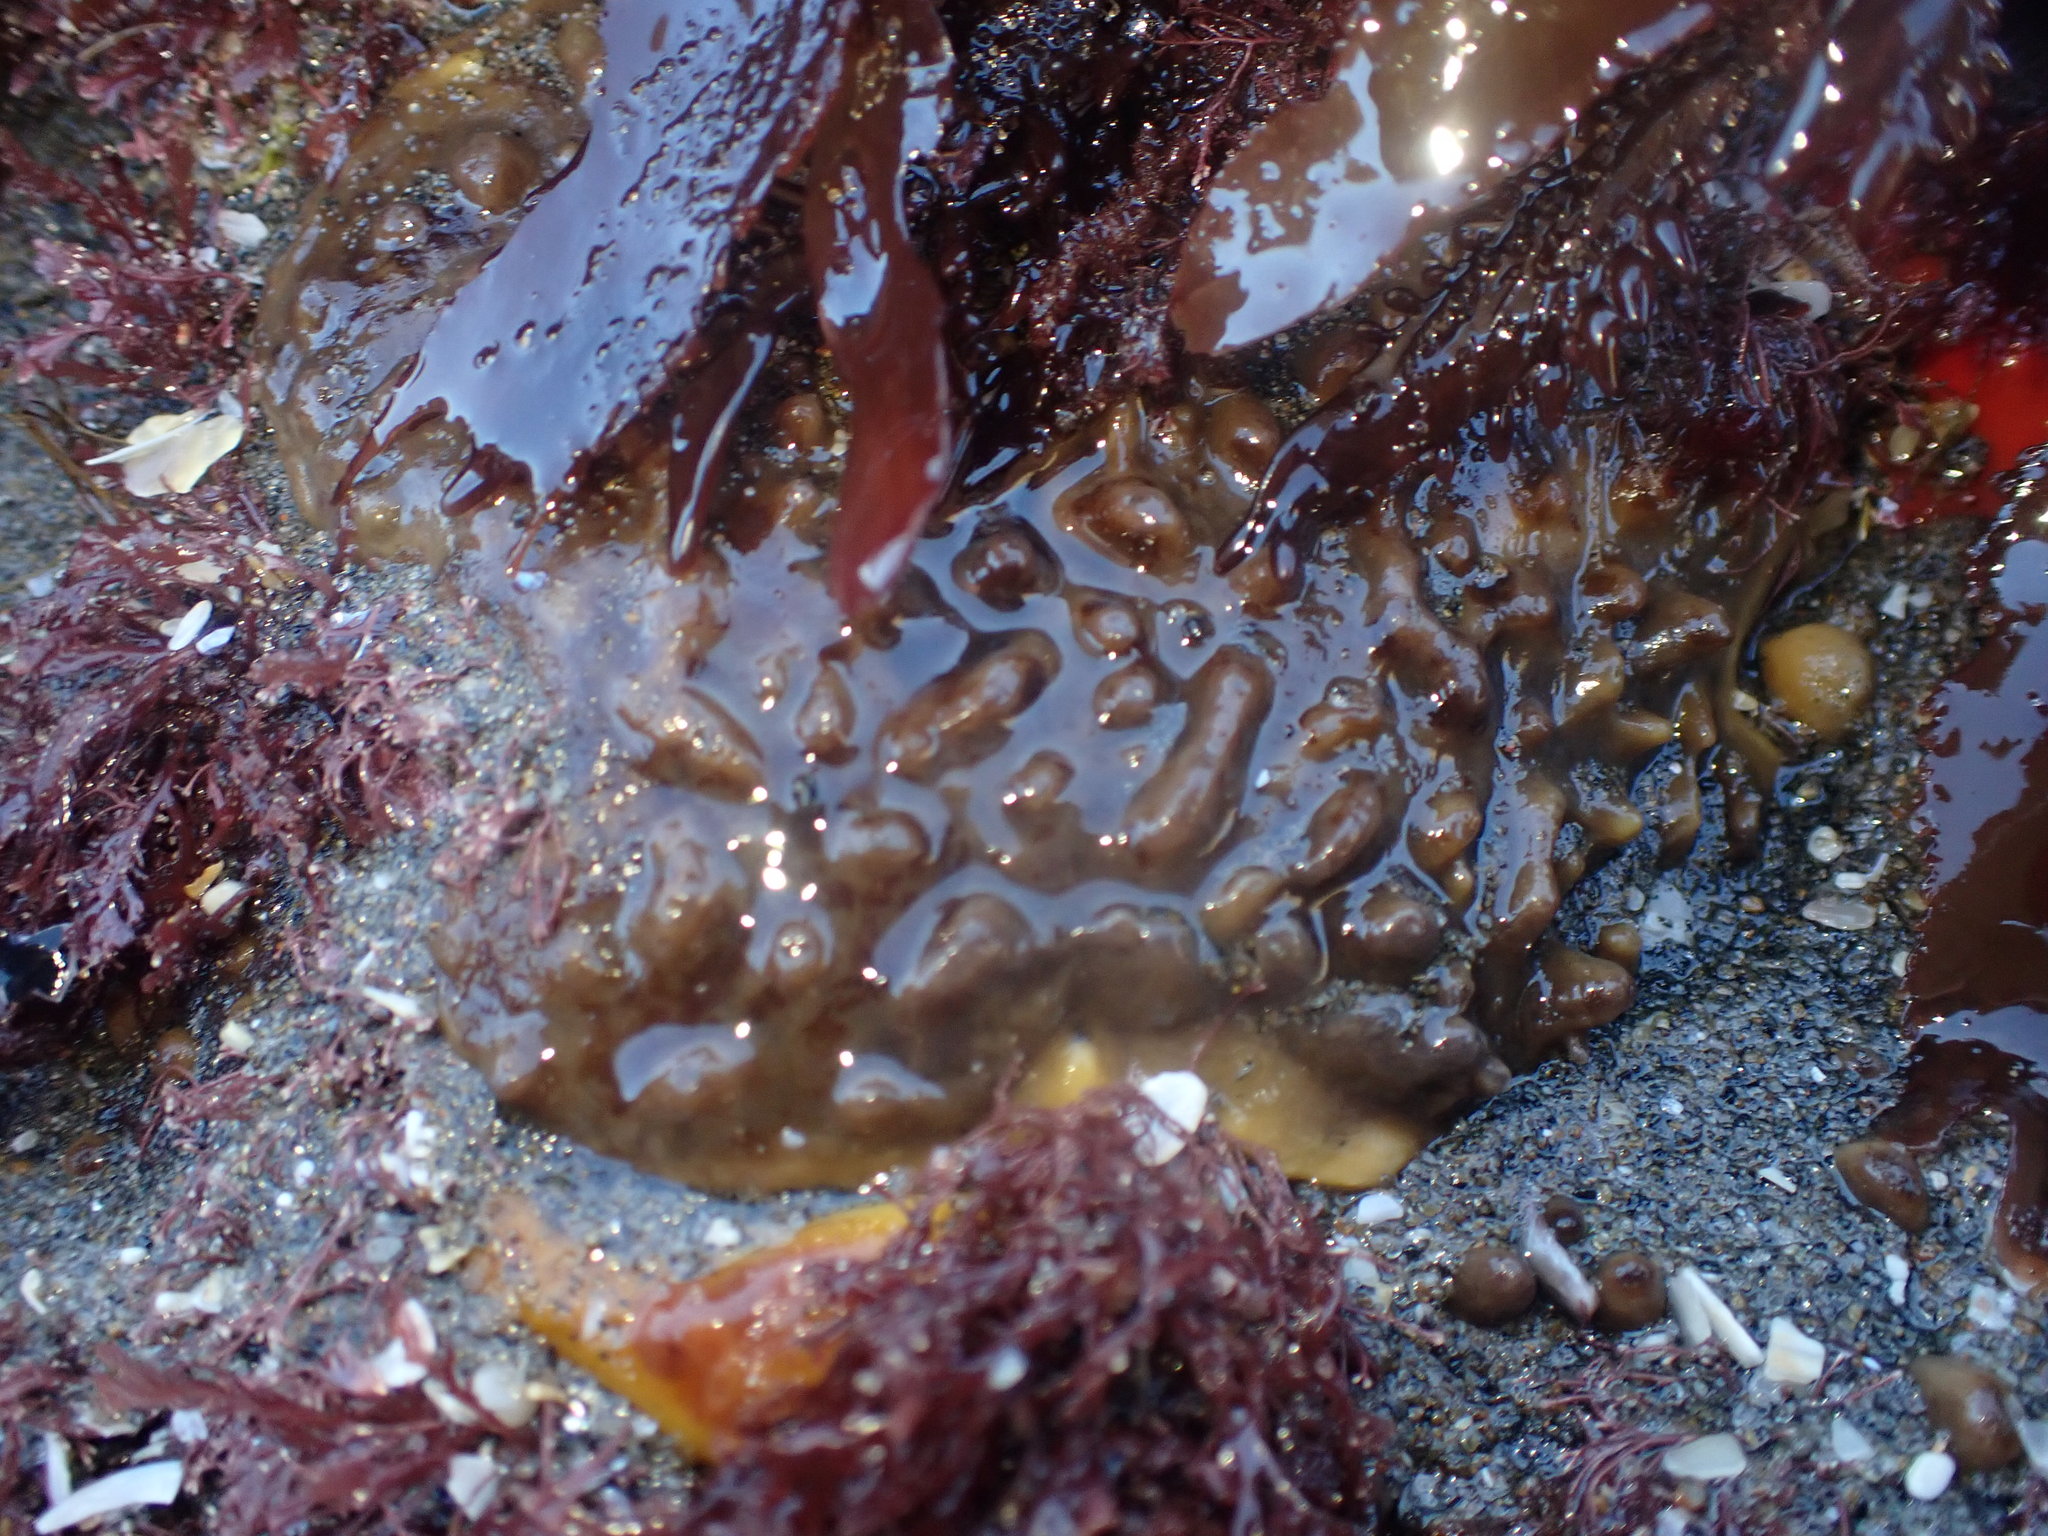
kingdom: Animalia
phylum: Porifera
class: Demospongiae
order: Polymastiida
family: Polymastiidae
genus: Polymastia
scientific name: Polymastia fusca
